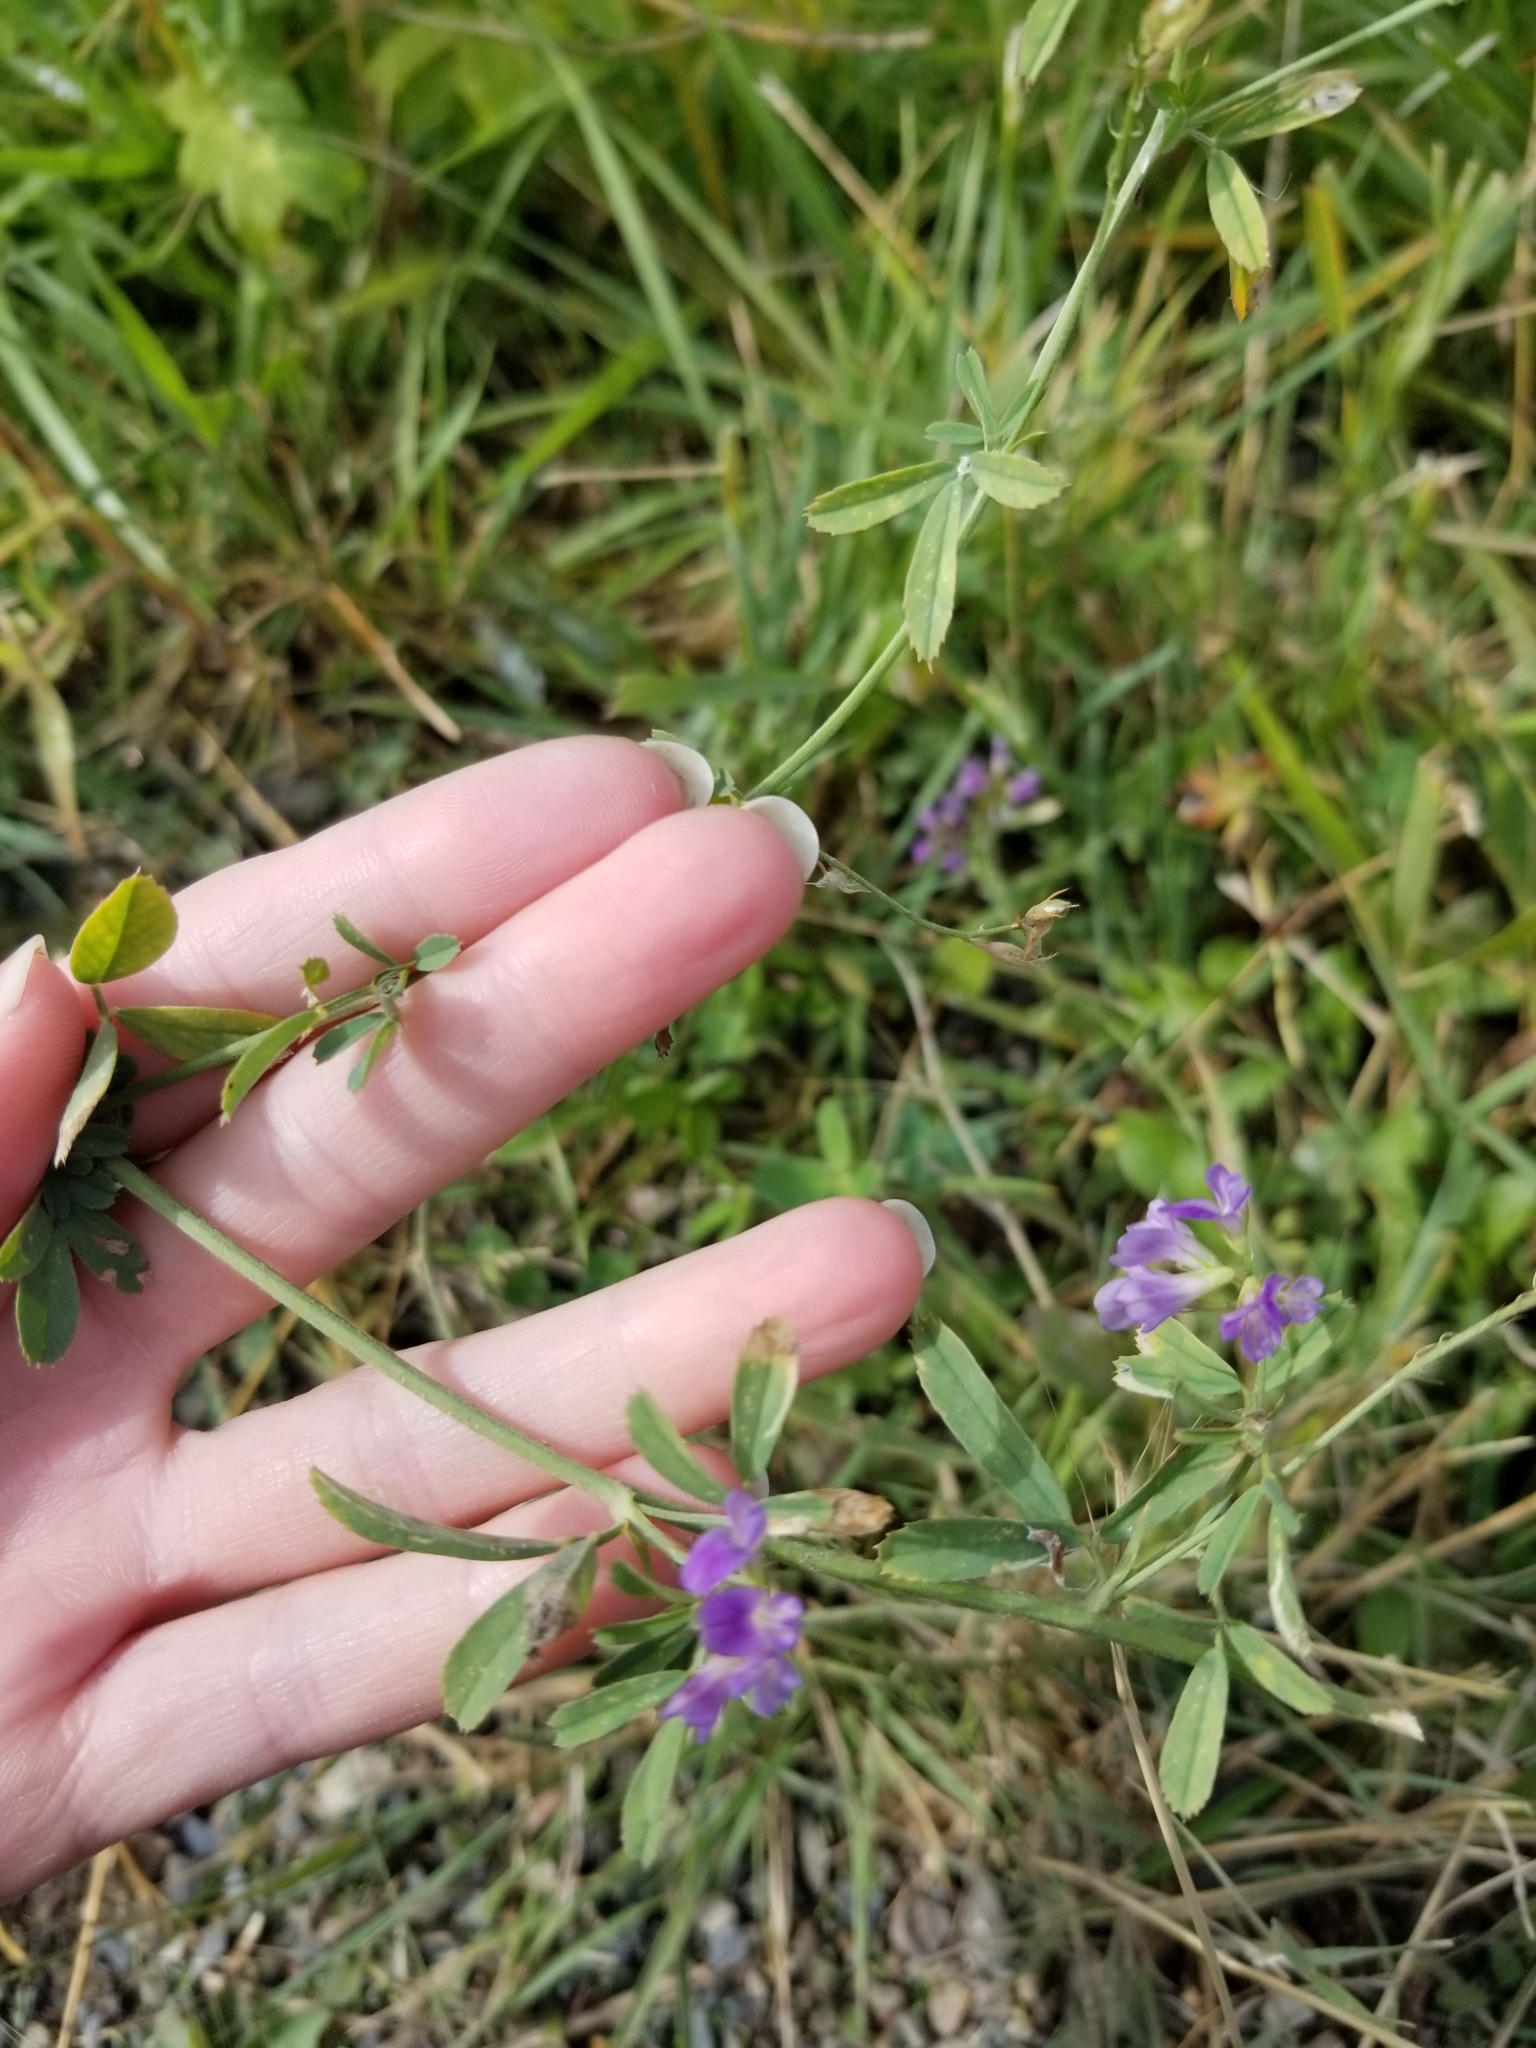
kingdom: Plantae
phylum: Tracheophyta
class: Magnoliopsida
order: Fabales
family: Fabaceae
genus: Medicago
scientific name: Medicago sativa
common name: Alfalfa
